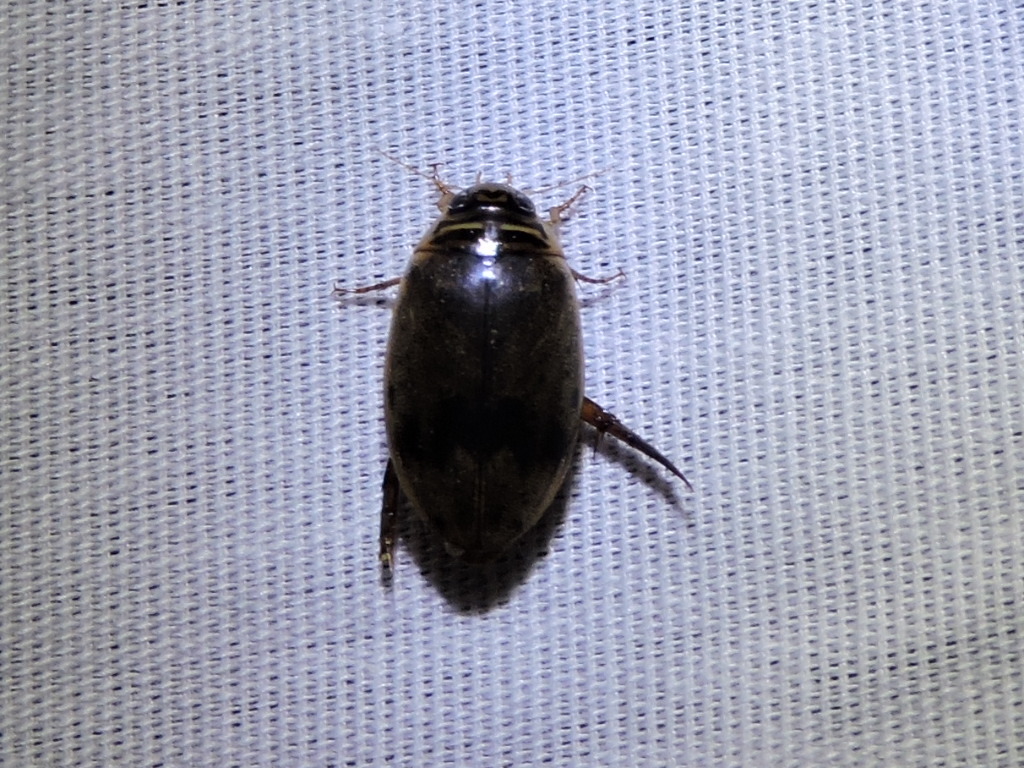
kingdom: Animalia
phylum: Arthropoda
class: Insecta
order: Coleoptera
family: Dytiscidae
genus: Thermonectus
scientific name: Thermonectus nigrofasciatus
